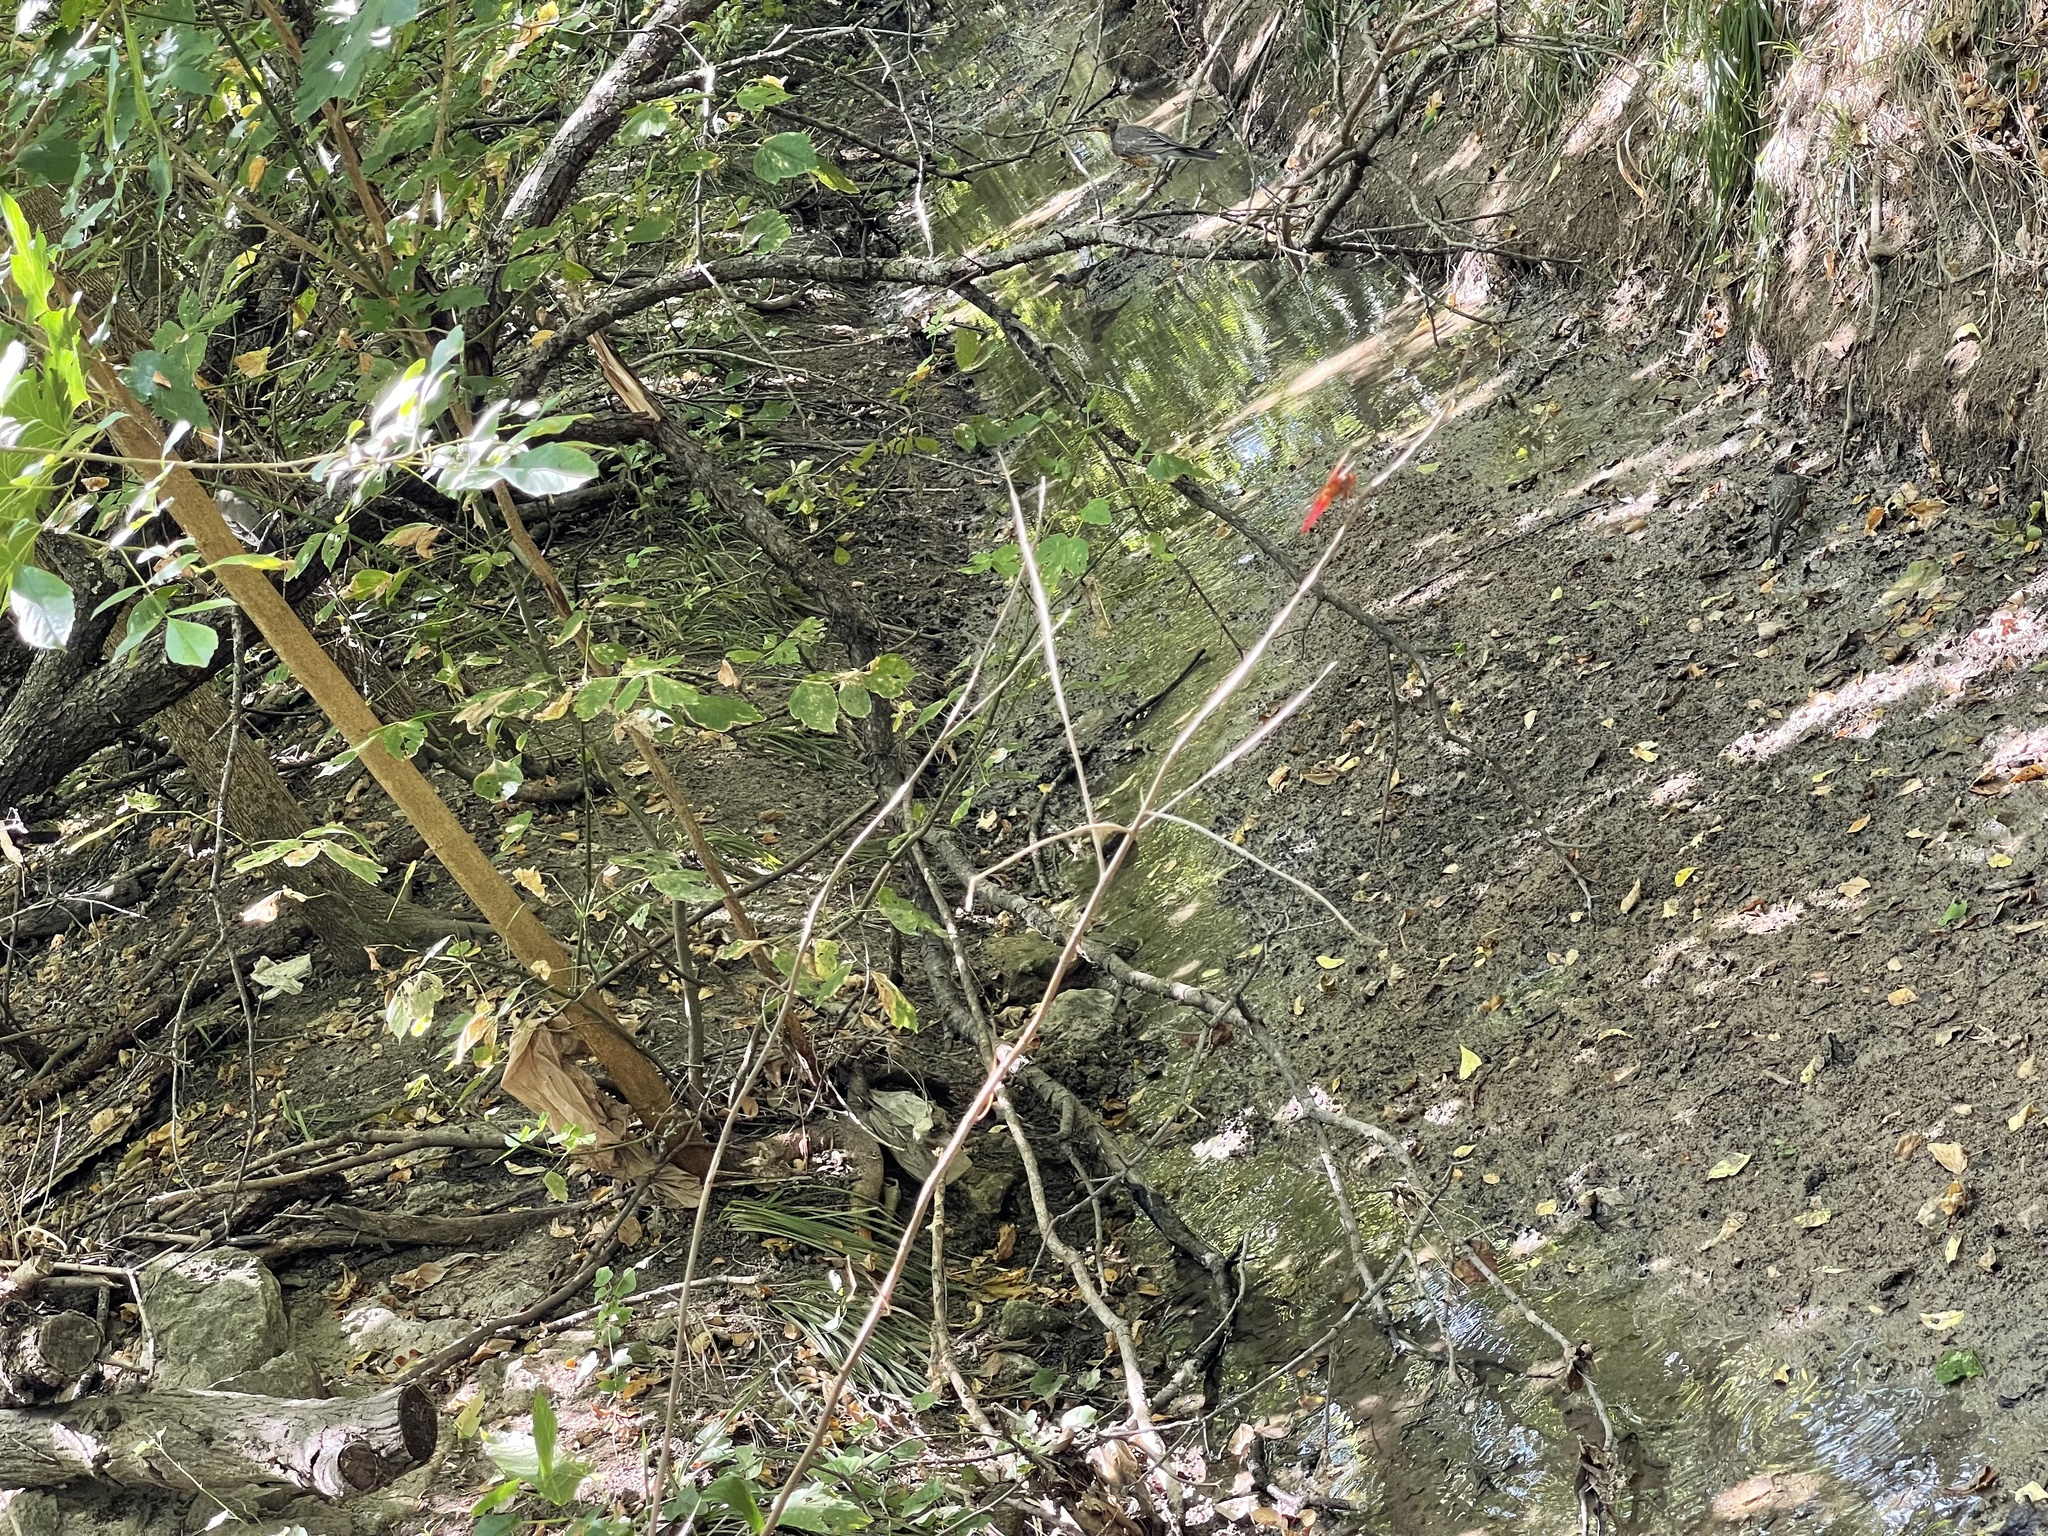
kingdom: Animalia
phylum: Arthropoda
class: Insecta
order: Odonata
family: Libellulidae
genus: Libellula
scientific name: Libellula croceipennis
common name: Neon skimmer
